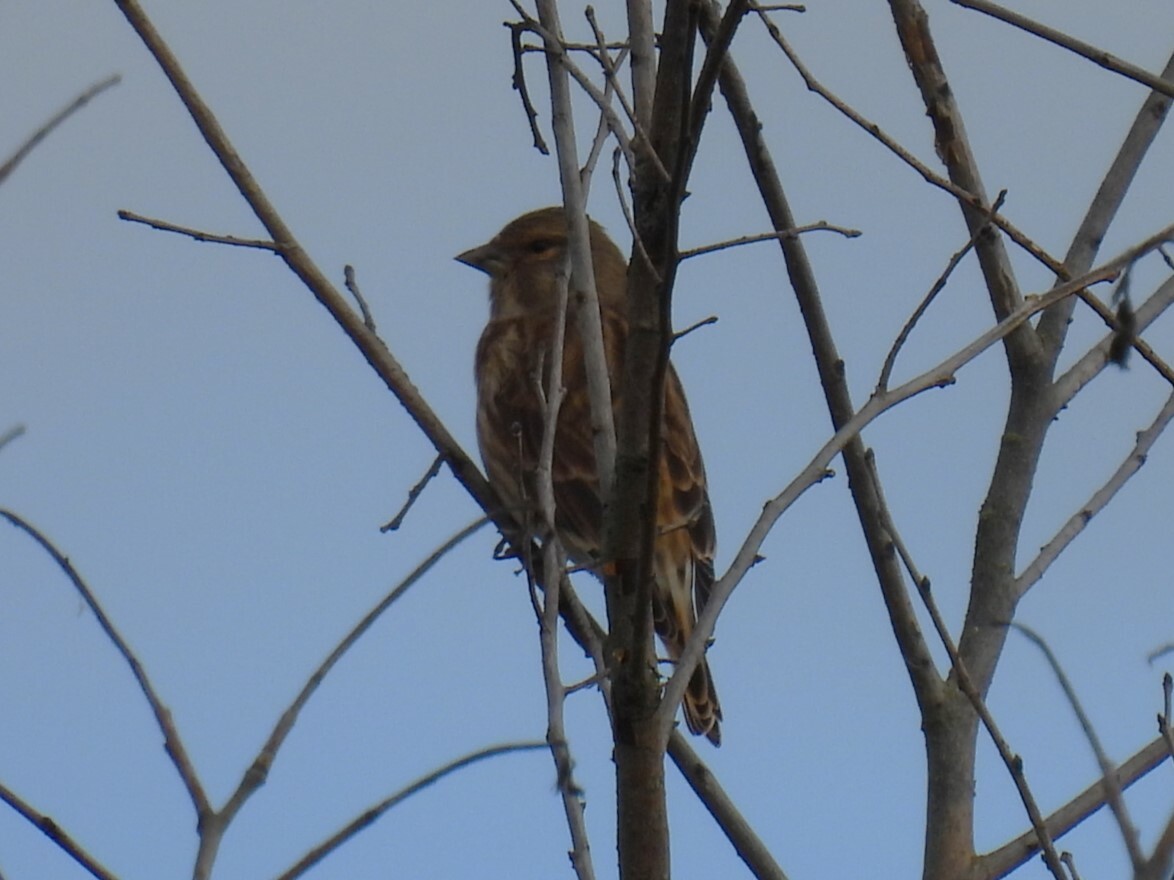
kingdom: Animalia
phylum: Chordata
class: Aves
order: Passeriformes
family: Fringillidae
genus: Linaria
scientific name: Linaria cannabina
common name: Common linnet
